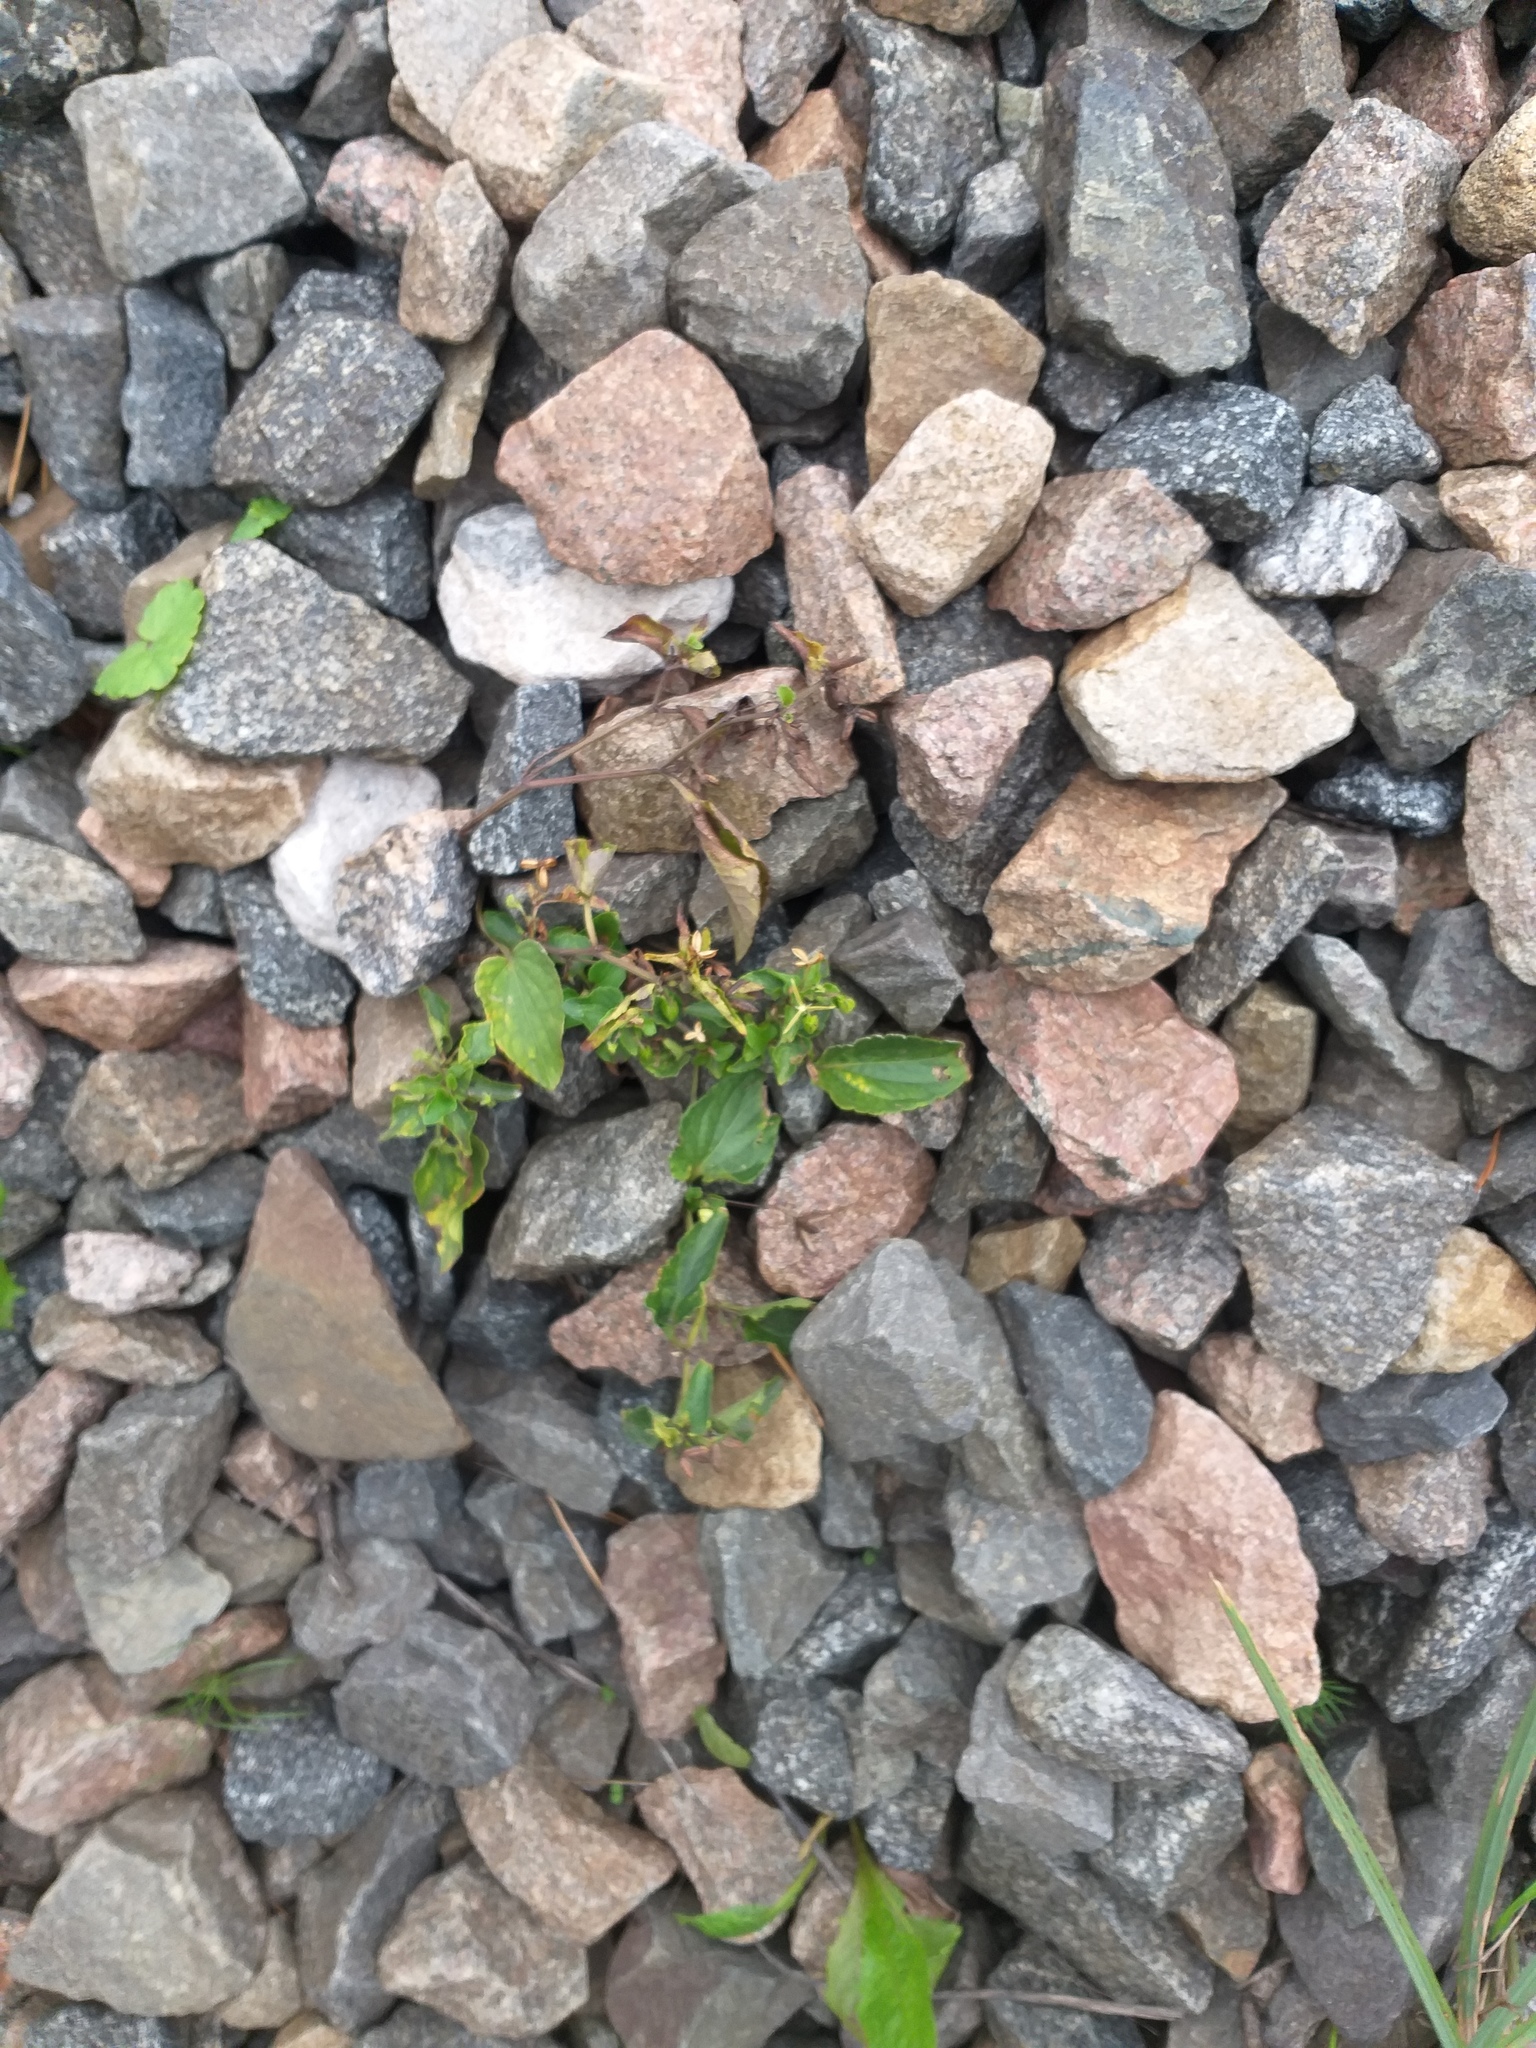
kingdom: Plantae
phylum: Tracheophyta
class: Magnoliopsida
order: Malpighiales
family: Violaceae
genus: Viola
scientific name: Viola canina
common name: Heath dog-violet
